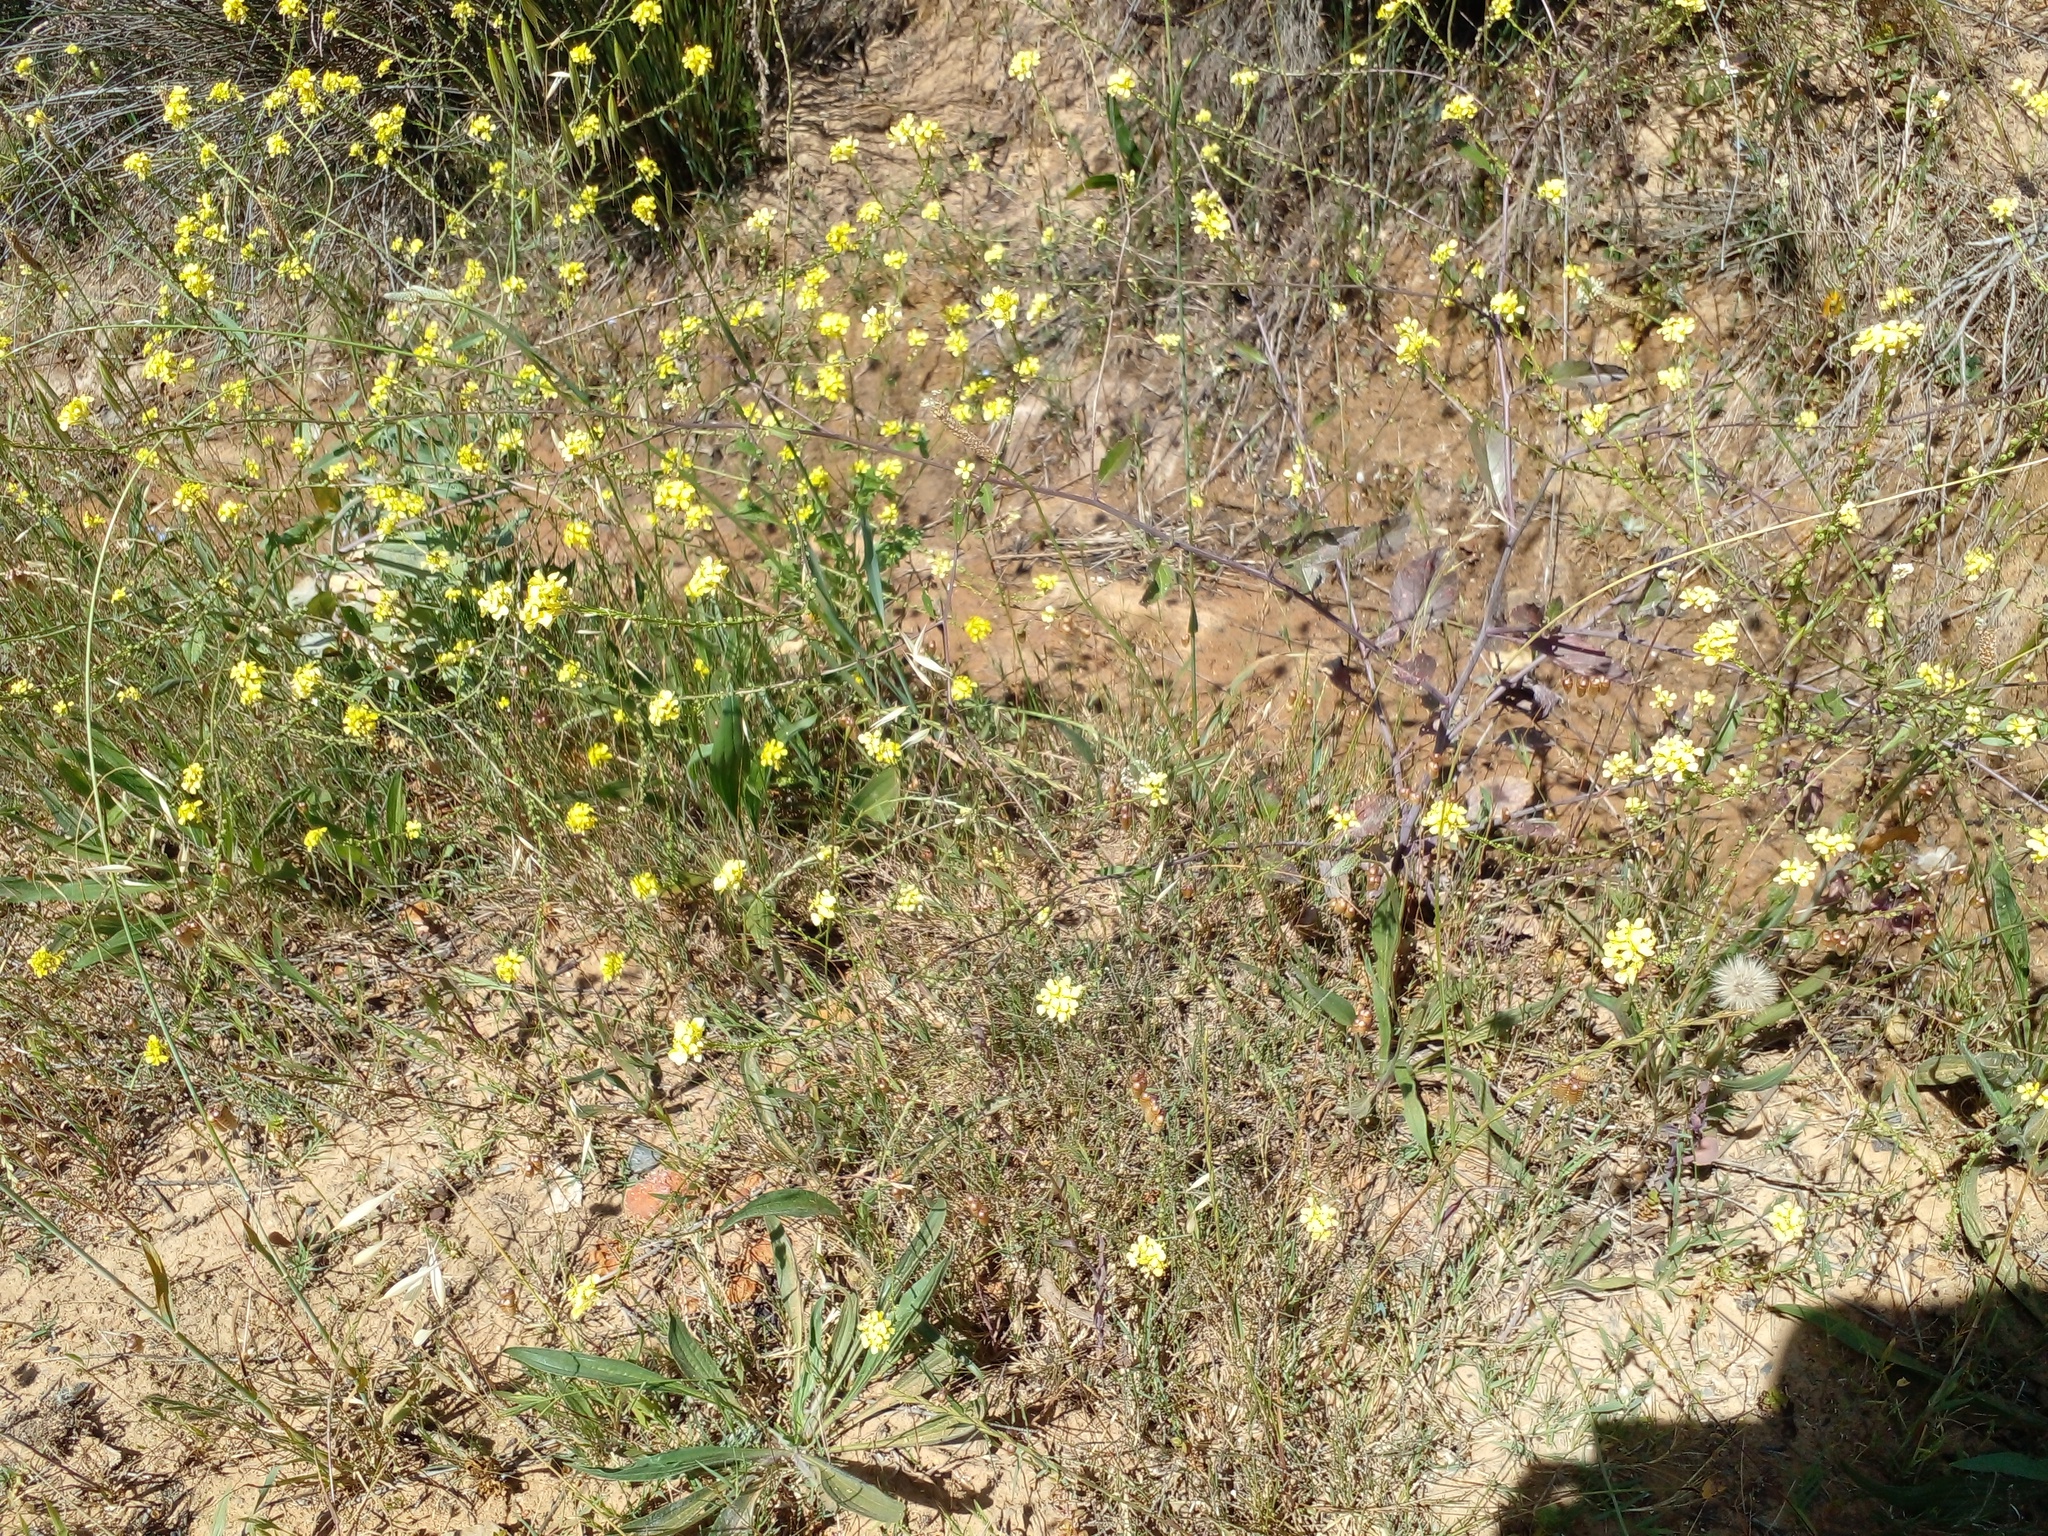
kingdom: Plantae
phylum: Tracheophyta
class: Magnoliopsida
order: Brassicales
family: Brassicaceae
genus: Rapistrum
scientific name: Rapistrum rugosum
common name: Annual bastardcabbage
